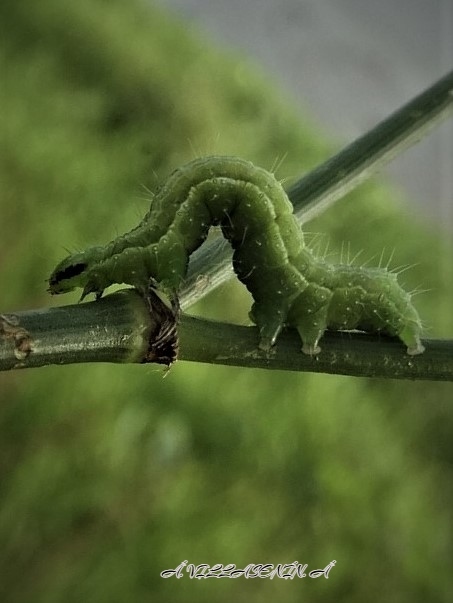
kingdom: Animalia
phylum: Arthropoda
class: Insecta
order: Lepidoptera
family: Noctuidae
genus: Thysanoplusia
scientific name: Thysanoplusia orichalcea
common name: Slender burnished brass, golden plusia
